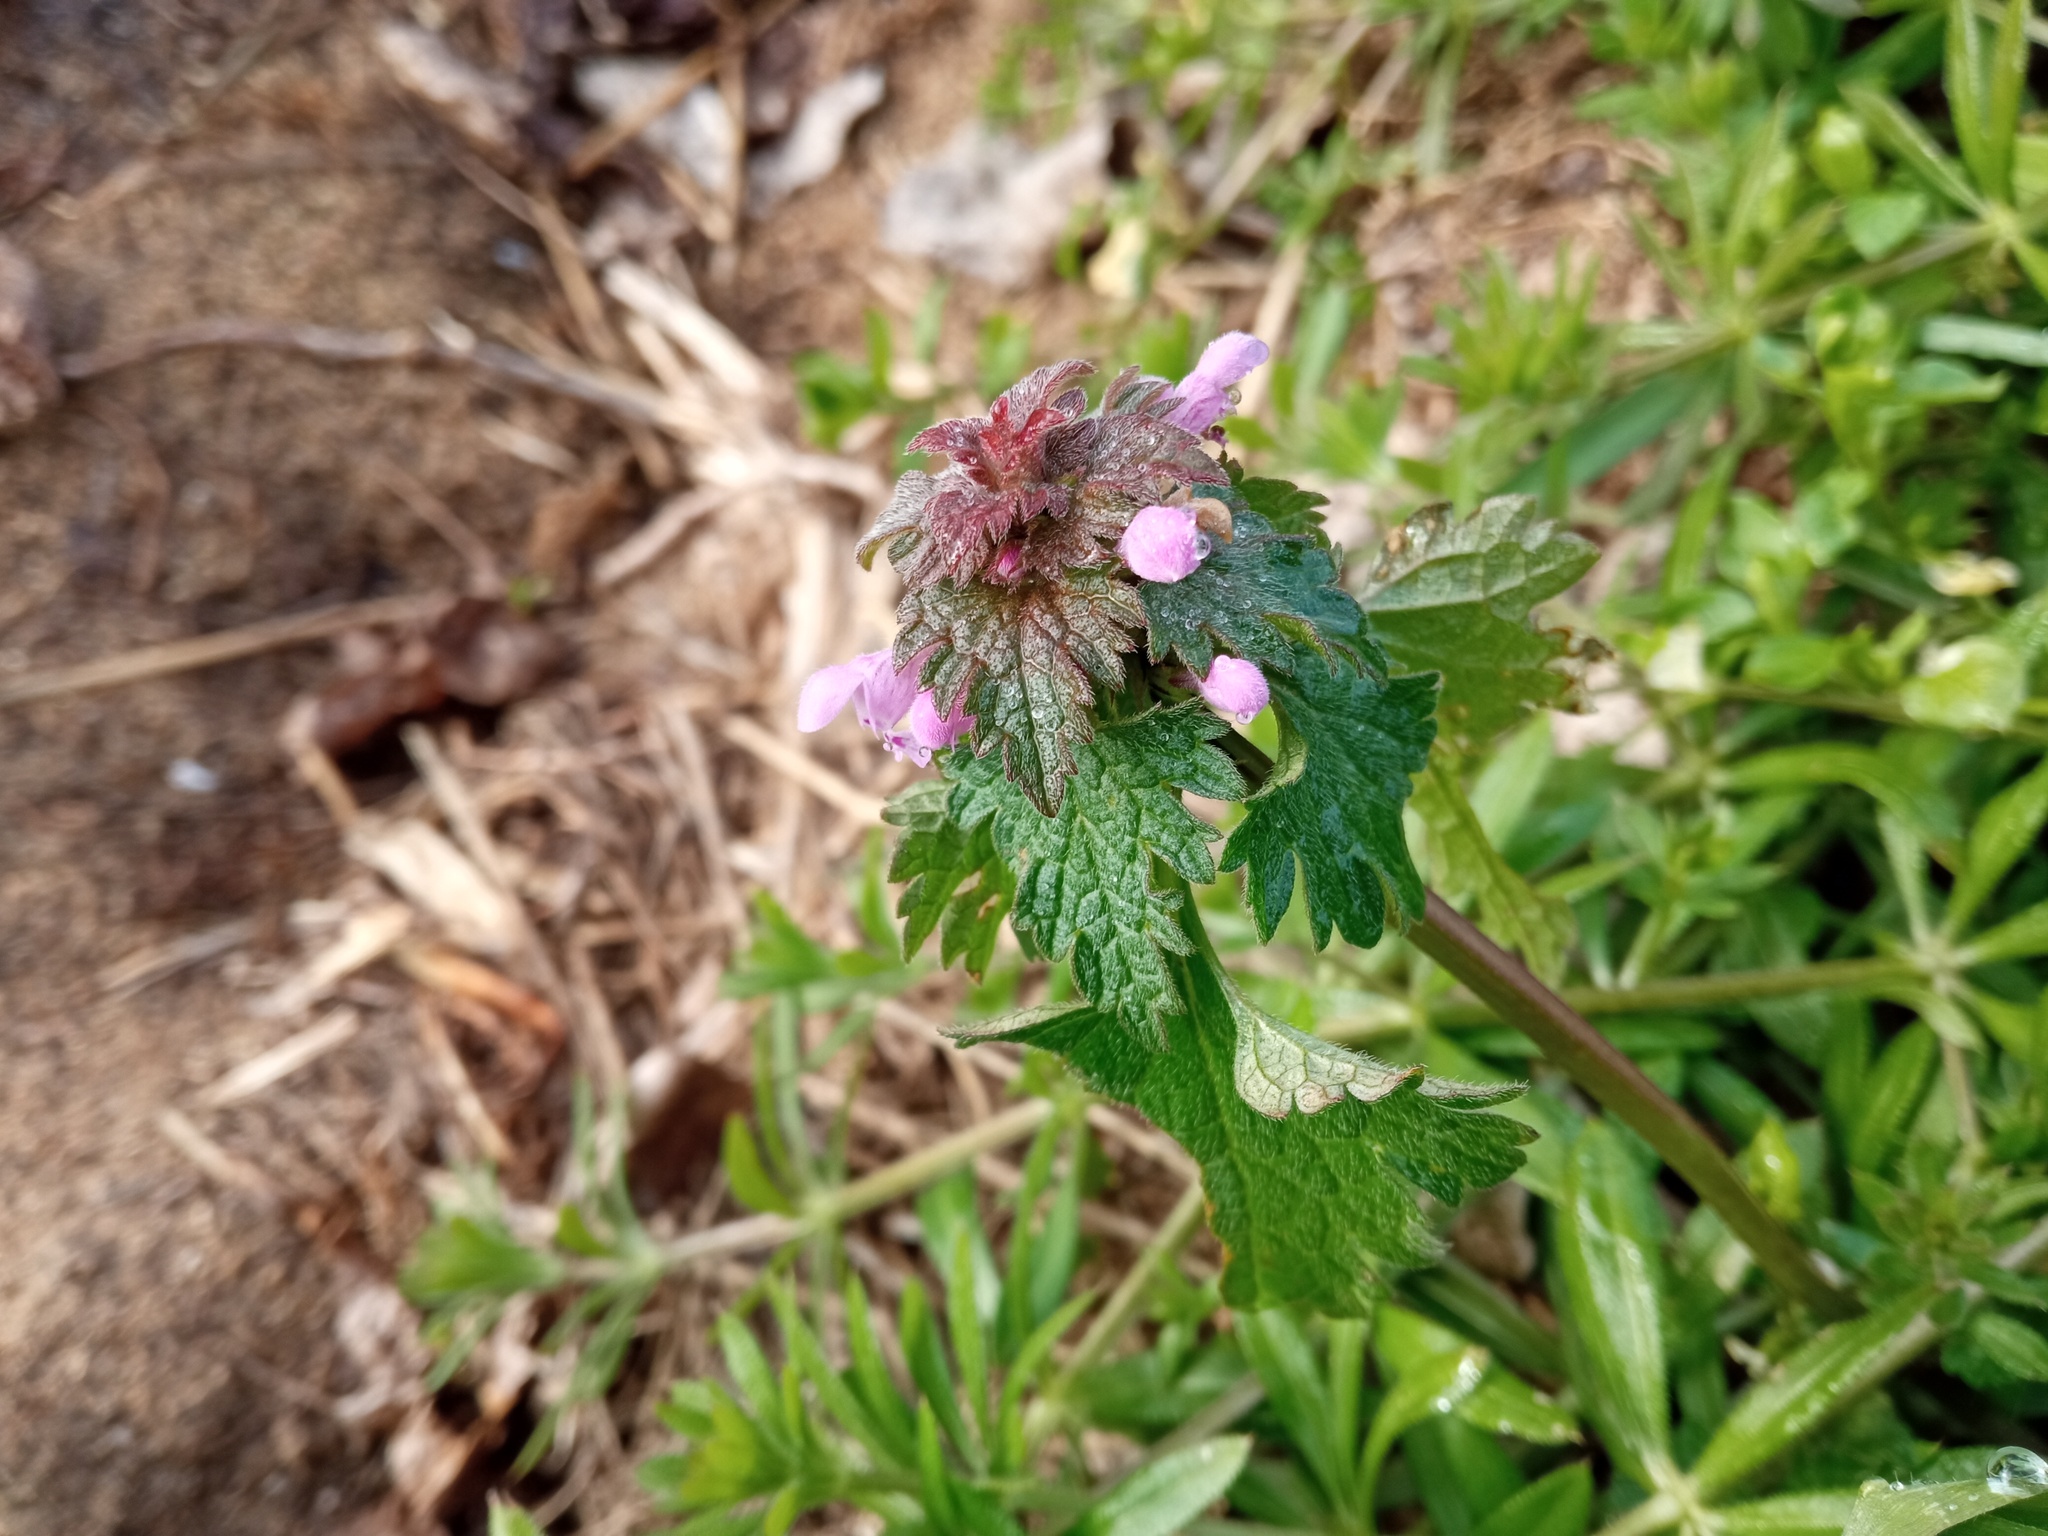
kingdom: Plantae
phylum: Tracheophyta
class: Magnoliopsida
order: Lamiales
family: Lamiaceae
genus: Lamium
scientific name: Lamium hybridum
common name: Cut-leaved dead-nettle
